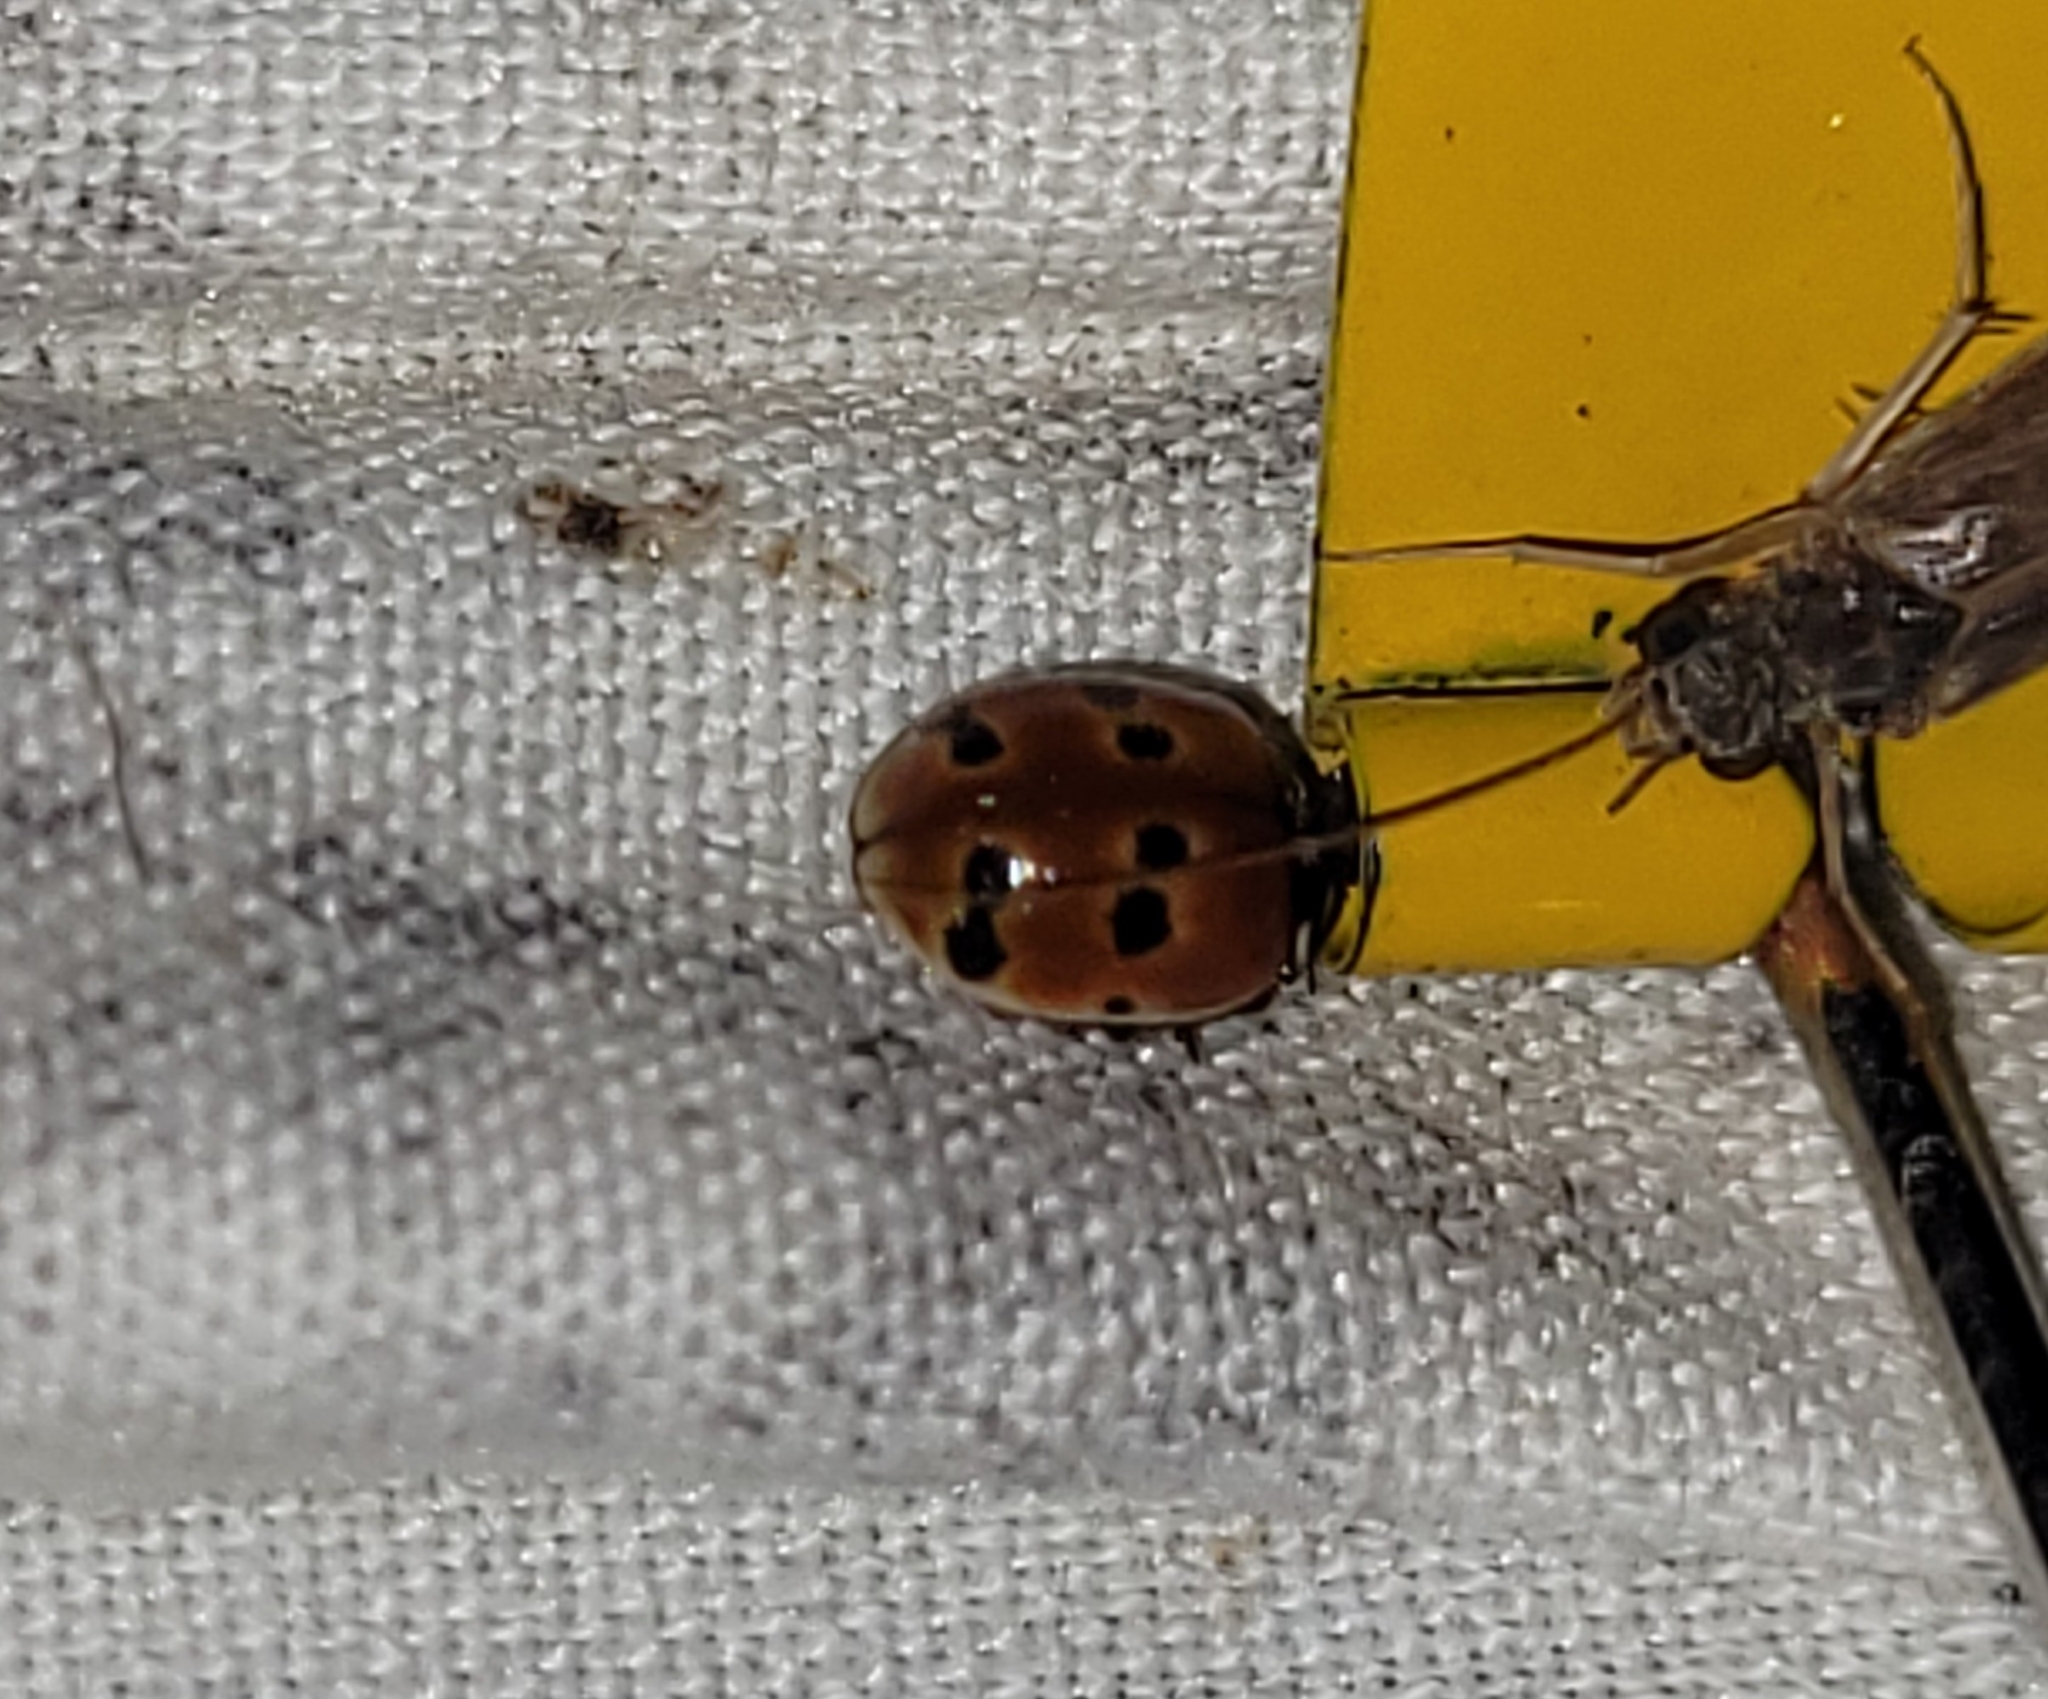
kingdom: Animalia
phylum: Arthropoda
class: Insecta
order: Coleoptera
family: Coccinellidae
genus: Adalia
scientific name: Adalia bipunctata
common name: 2-spot ladybird
